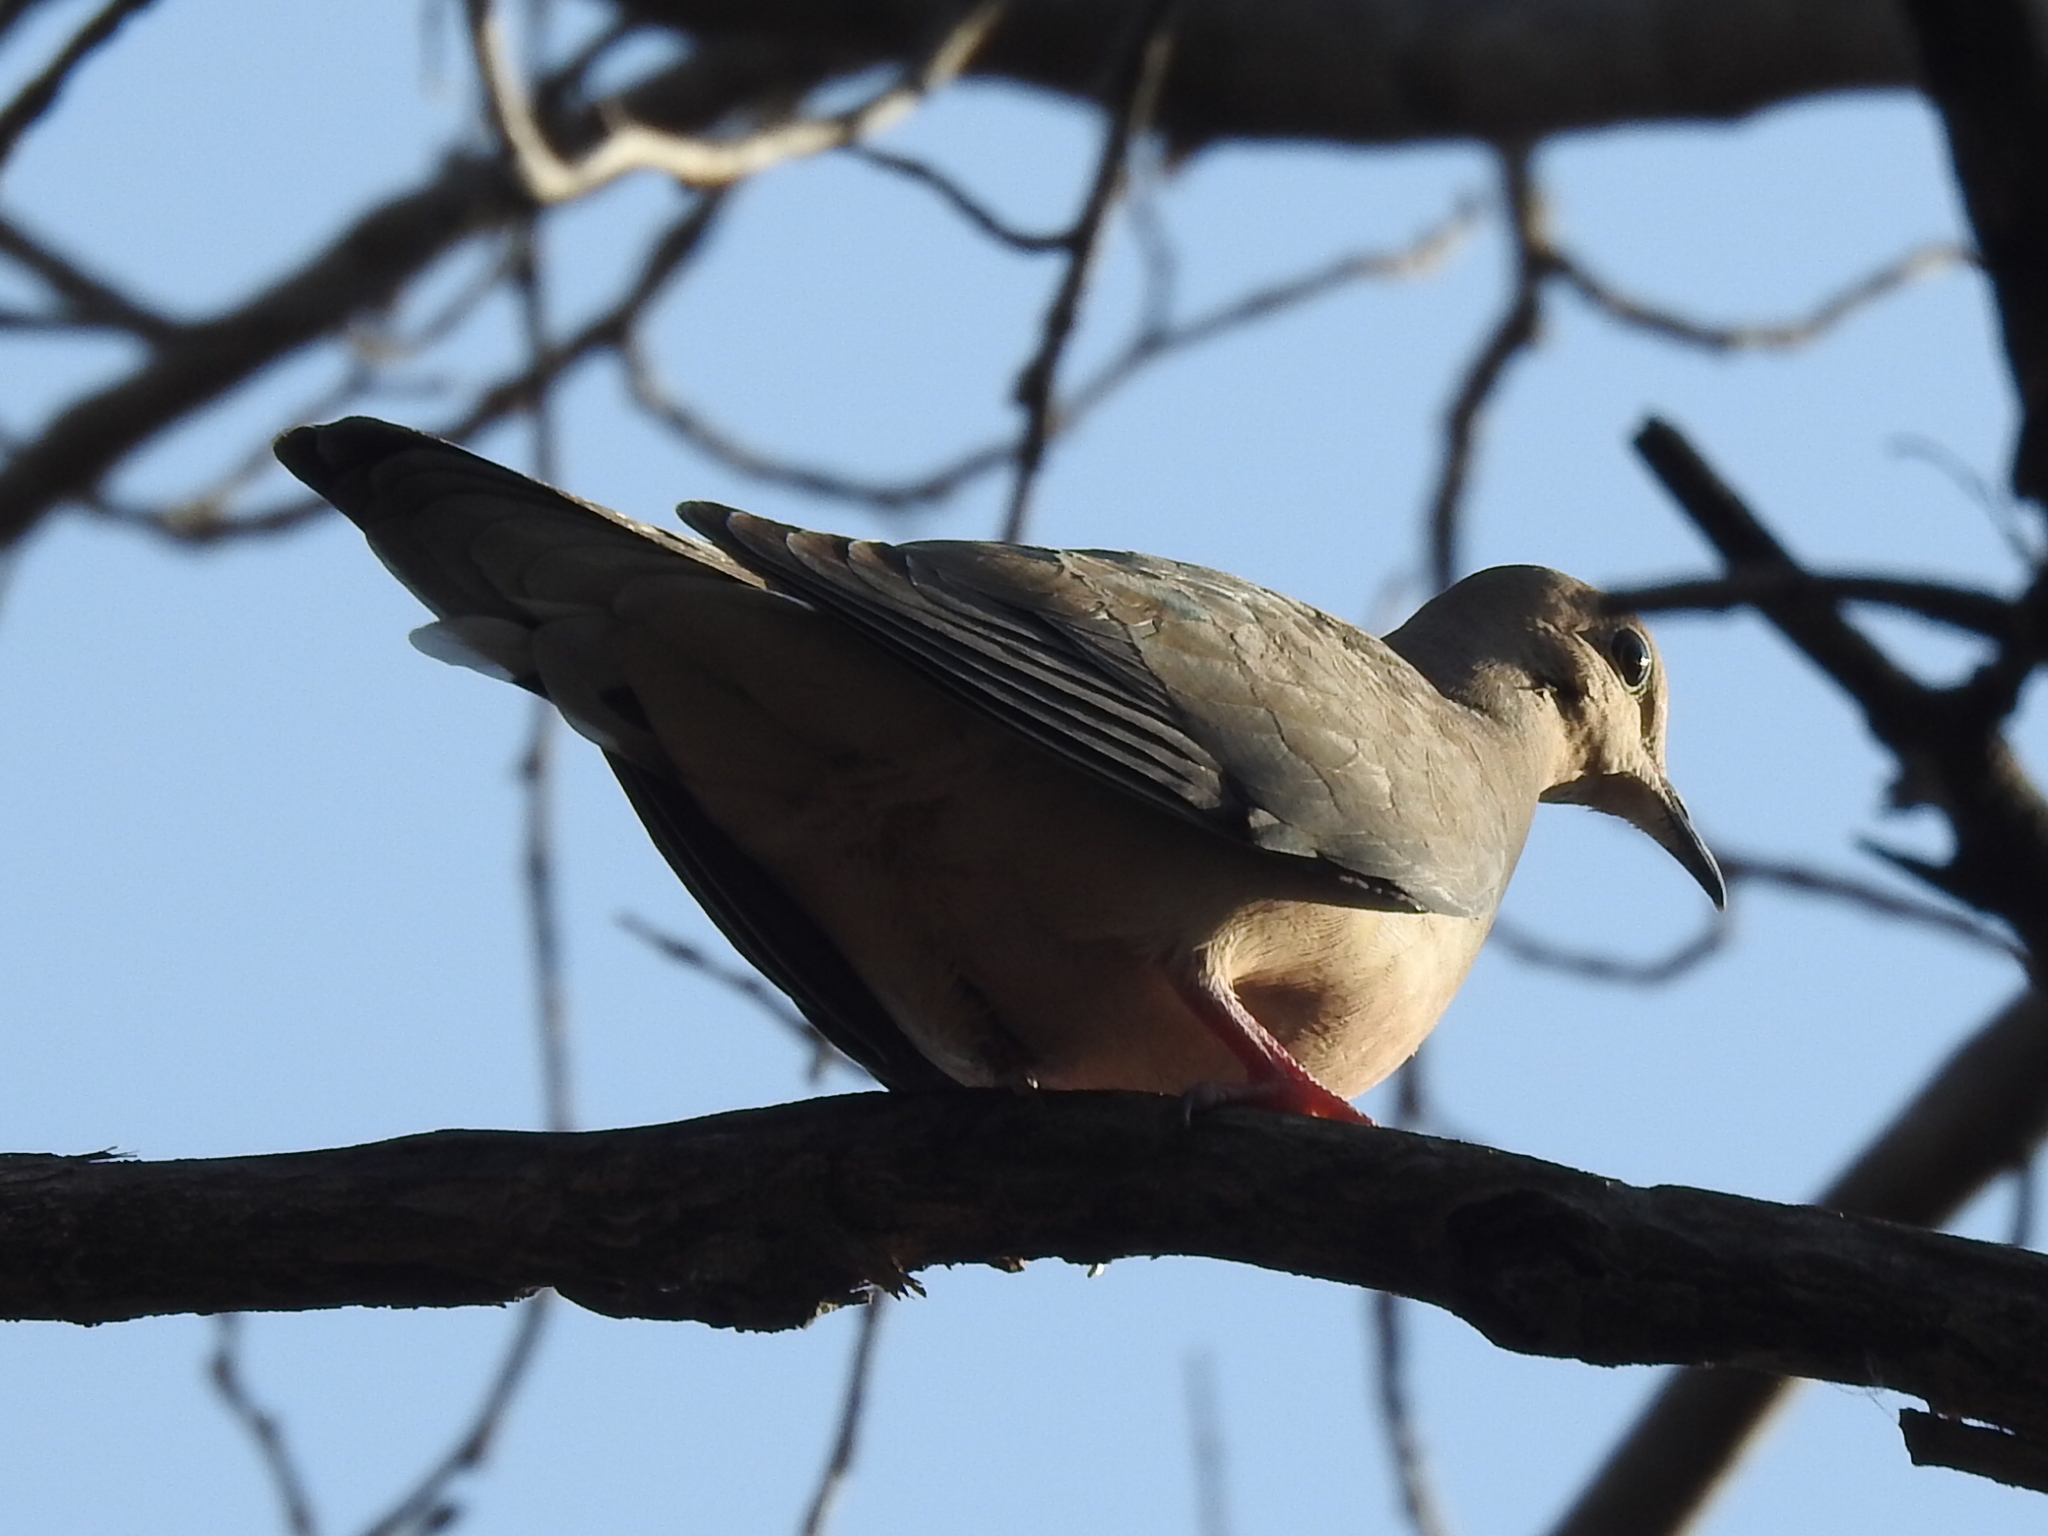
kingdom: Animalia
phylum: Chordata
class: Aves
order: Columbiformes
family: Columbidae
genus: Zenaida
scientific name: Zenaida macroura
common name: Mourning dove
